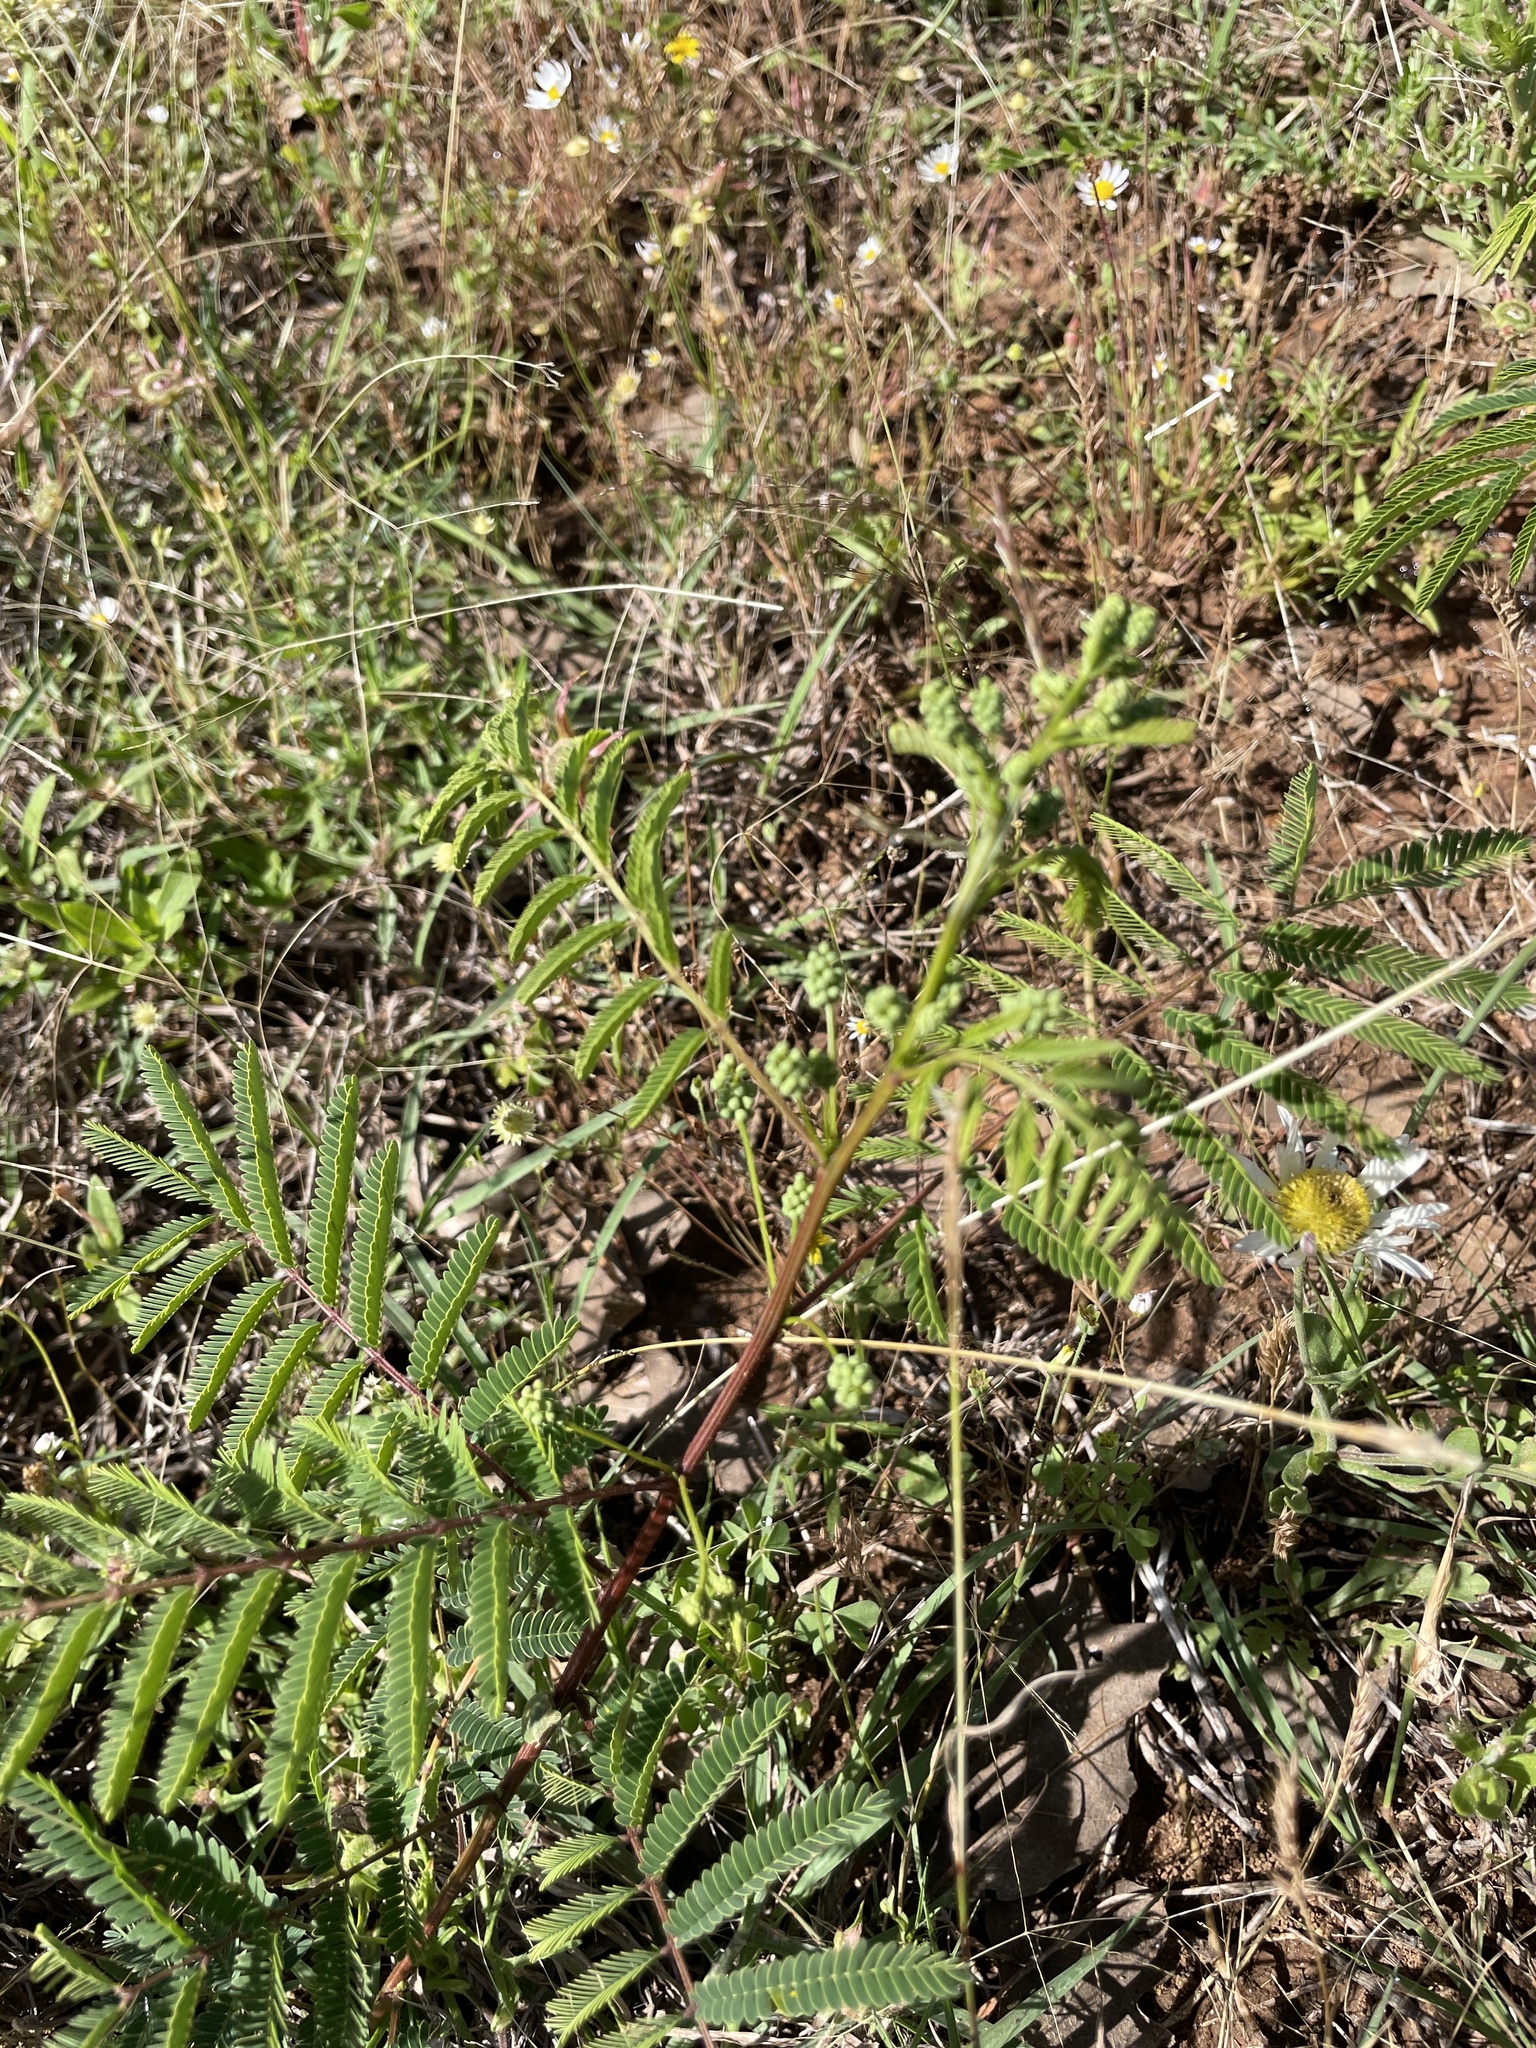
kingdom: Plantae
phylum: Tracheophyta
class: Magnoliopsida
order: Fabales
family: Fabaceae
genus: Acaciella
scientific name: Acaciella angustissima
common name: Prairie acacia
